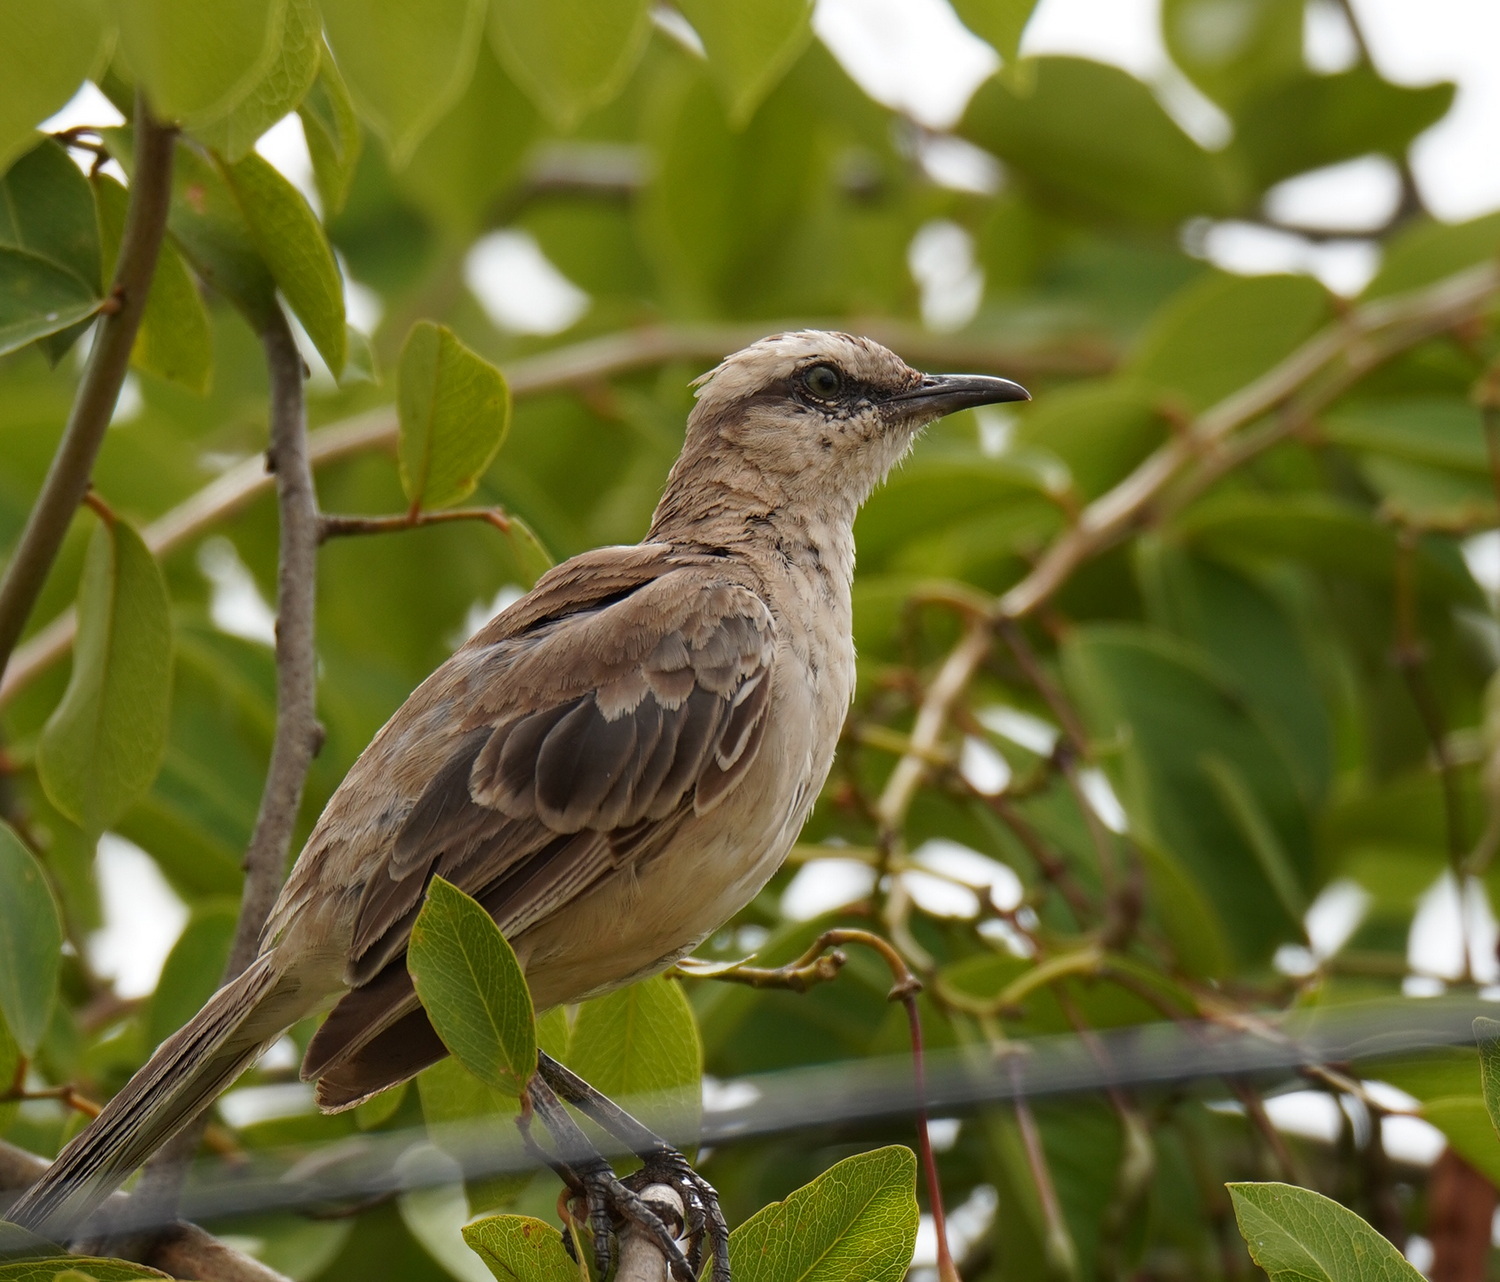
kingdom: Animalia
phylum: Chordata
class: Aves
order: Passeriformes
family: Mimidae
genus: Mimus
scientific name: Mimus saturninus
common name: Chalk-browed mockingbird
